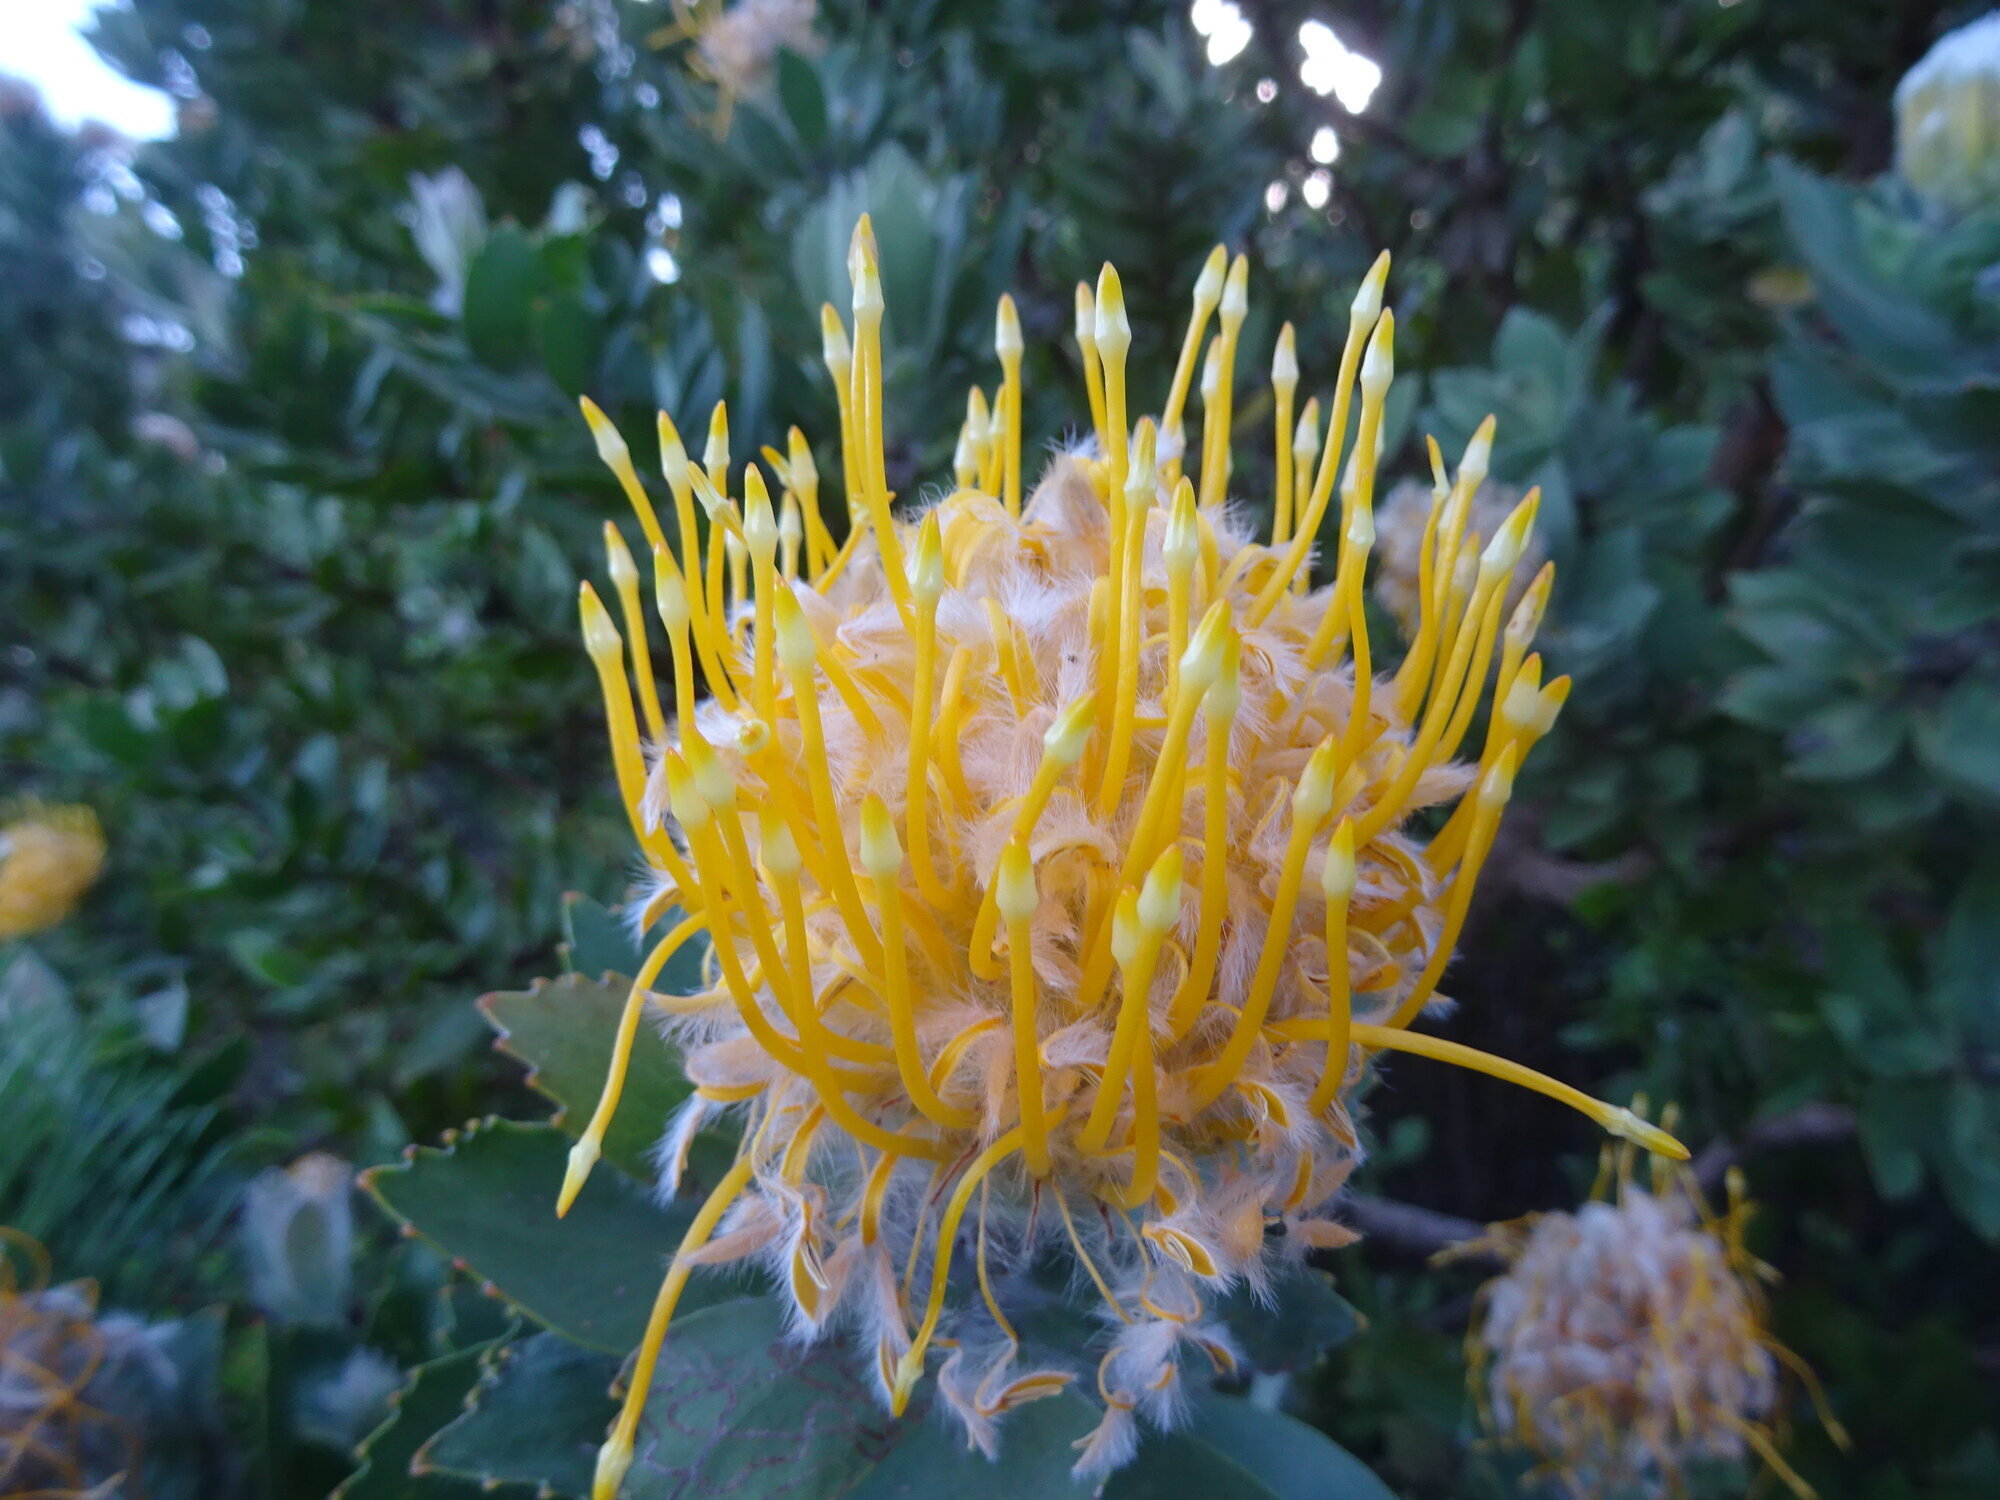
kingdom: Plantae
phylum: Tracheophyta
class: Magnoliopsida
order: Proteales
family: Proteaceae
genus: Leucospermum
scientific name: Leucospermum conocarpodendron
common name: Tree pincushion
